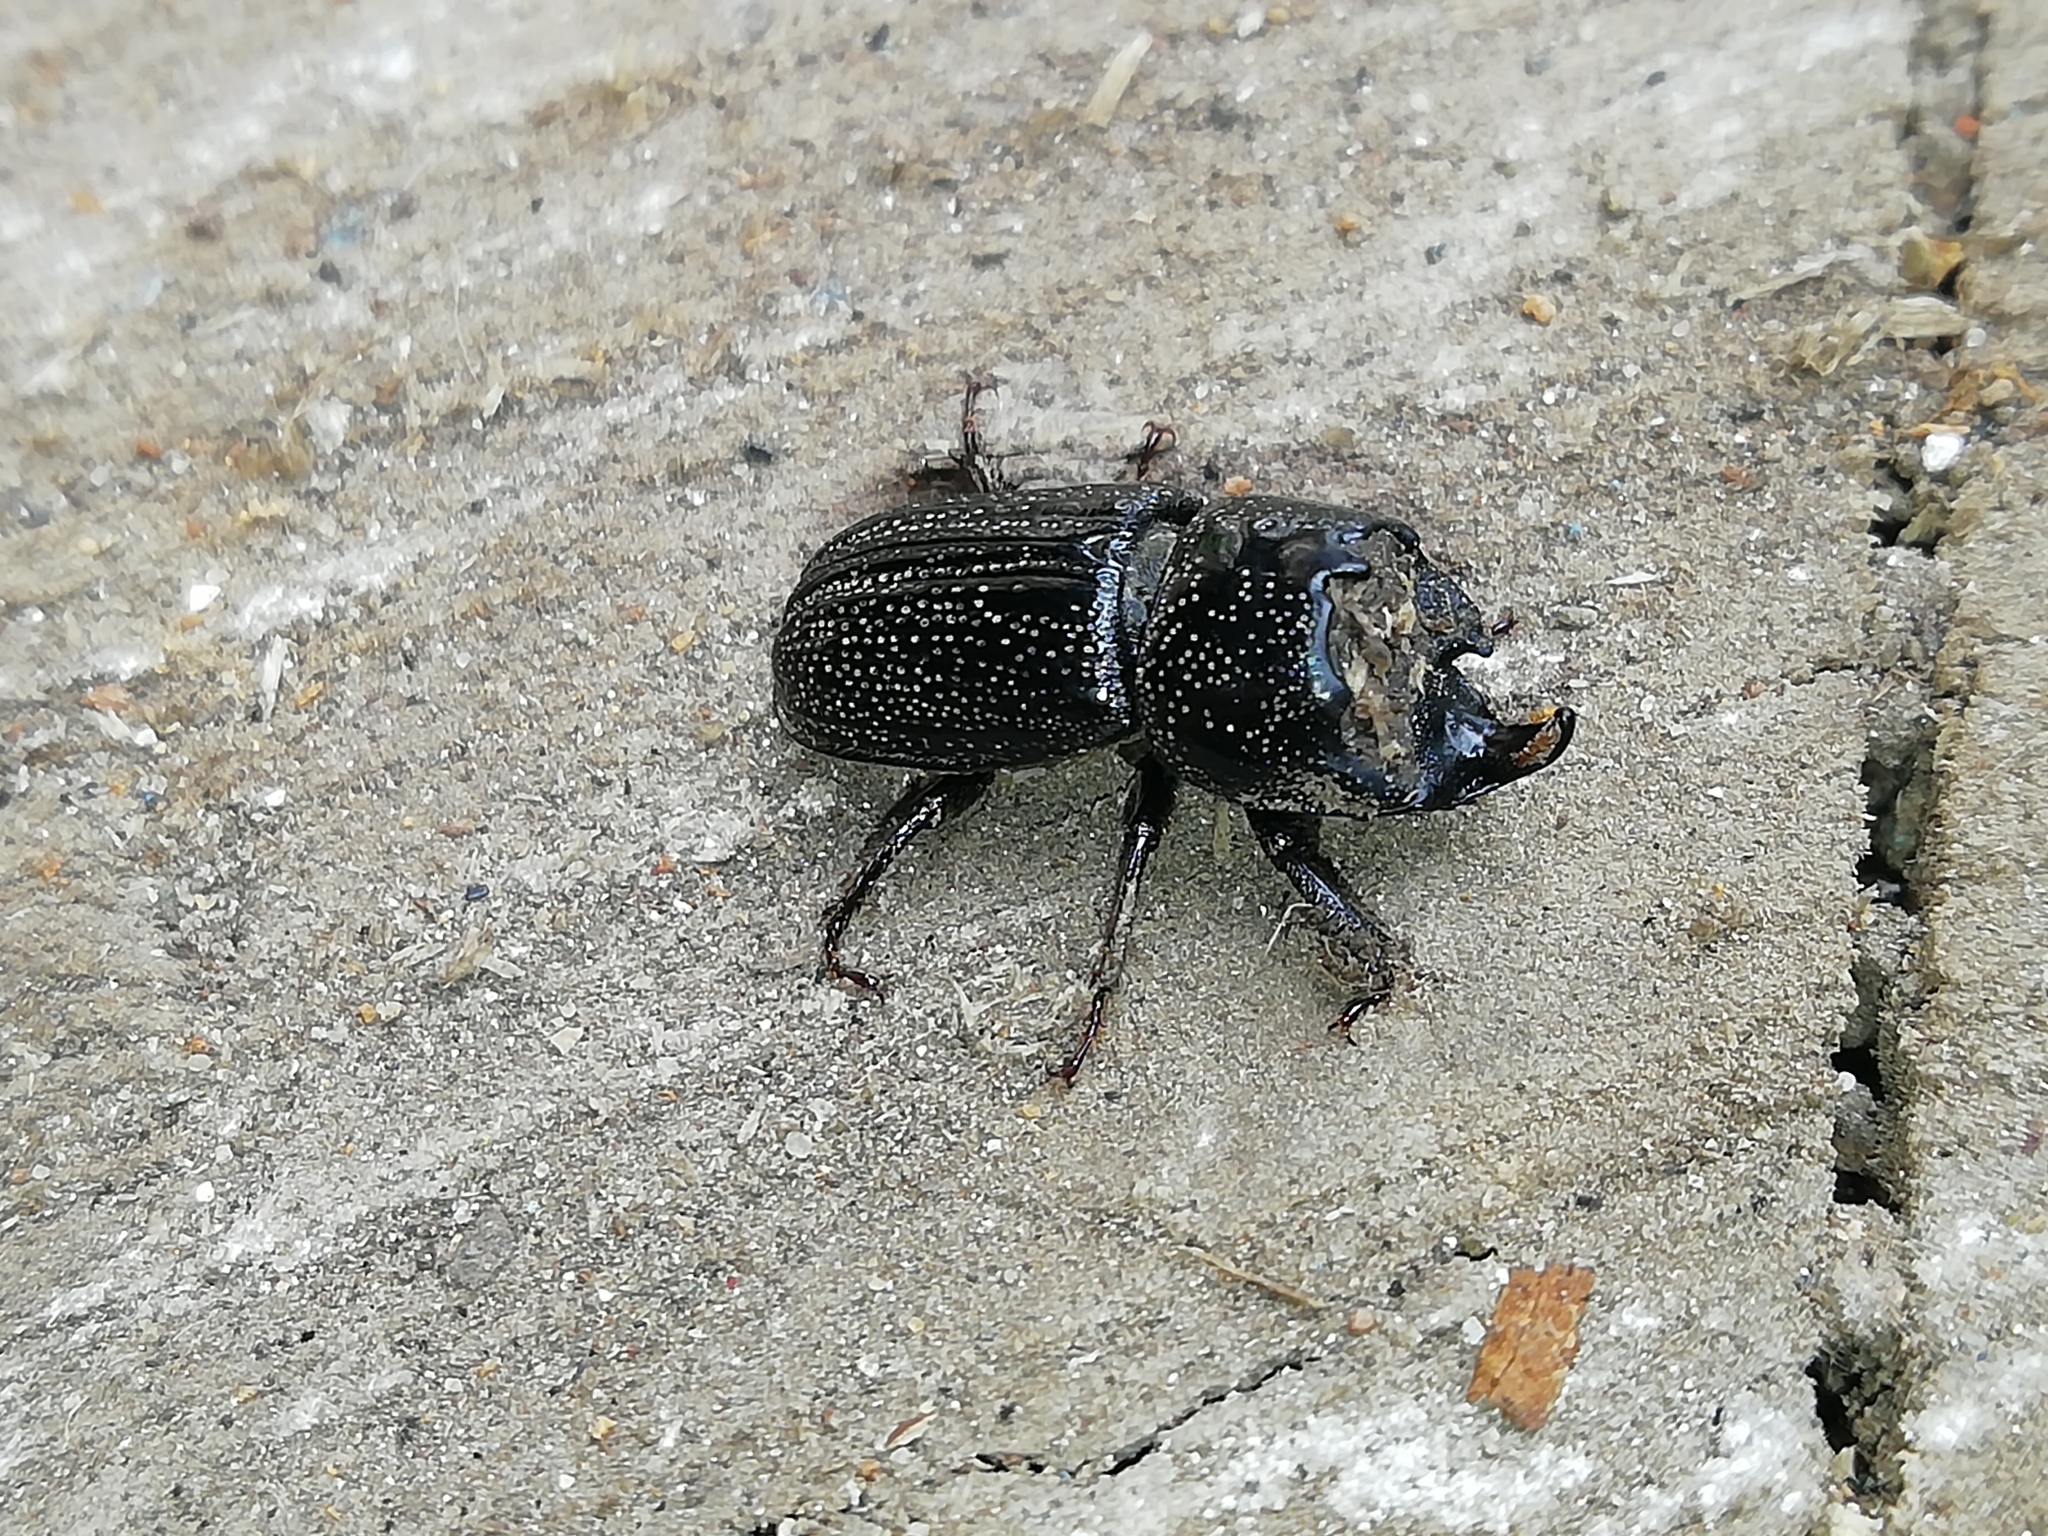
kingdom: Animalia
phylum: Arthropoda
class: Insecta
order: Coleoptera
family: Lucanidae
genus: Sinodendron
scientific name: Sinodendron cylindricum
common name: Rhinoceros beetle
